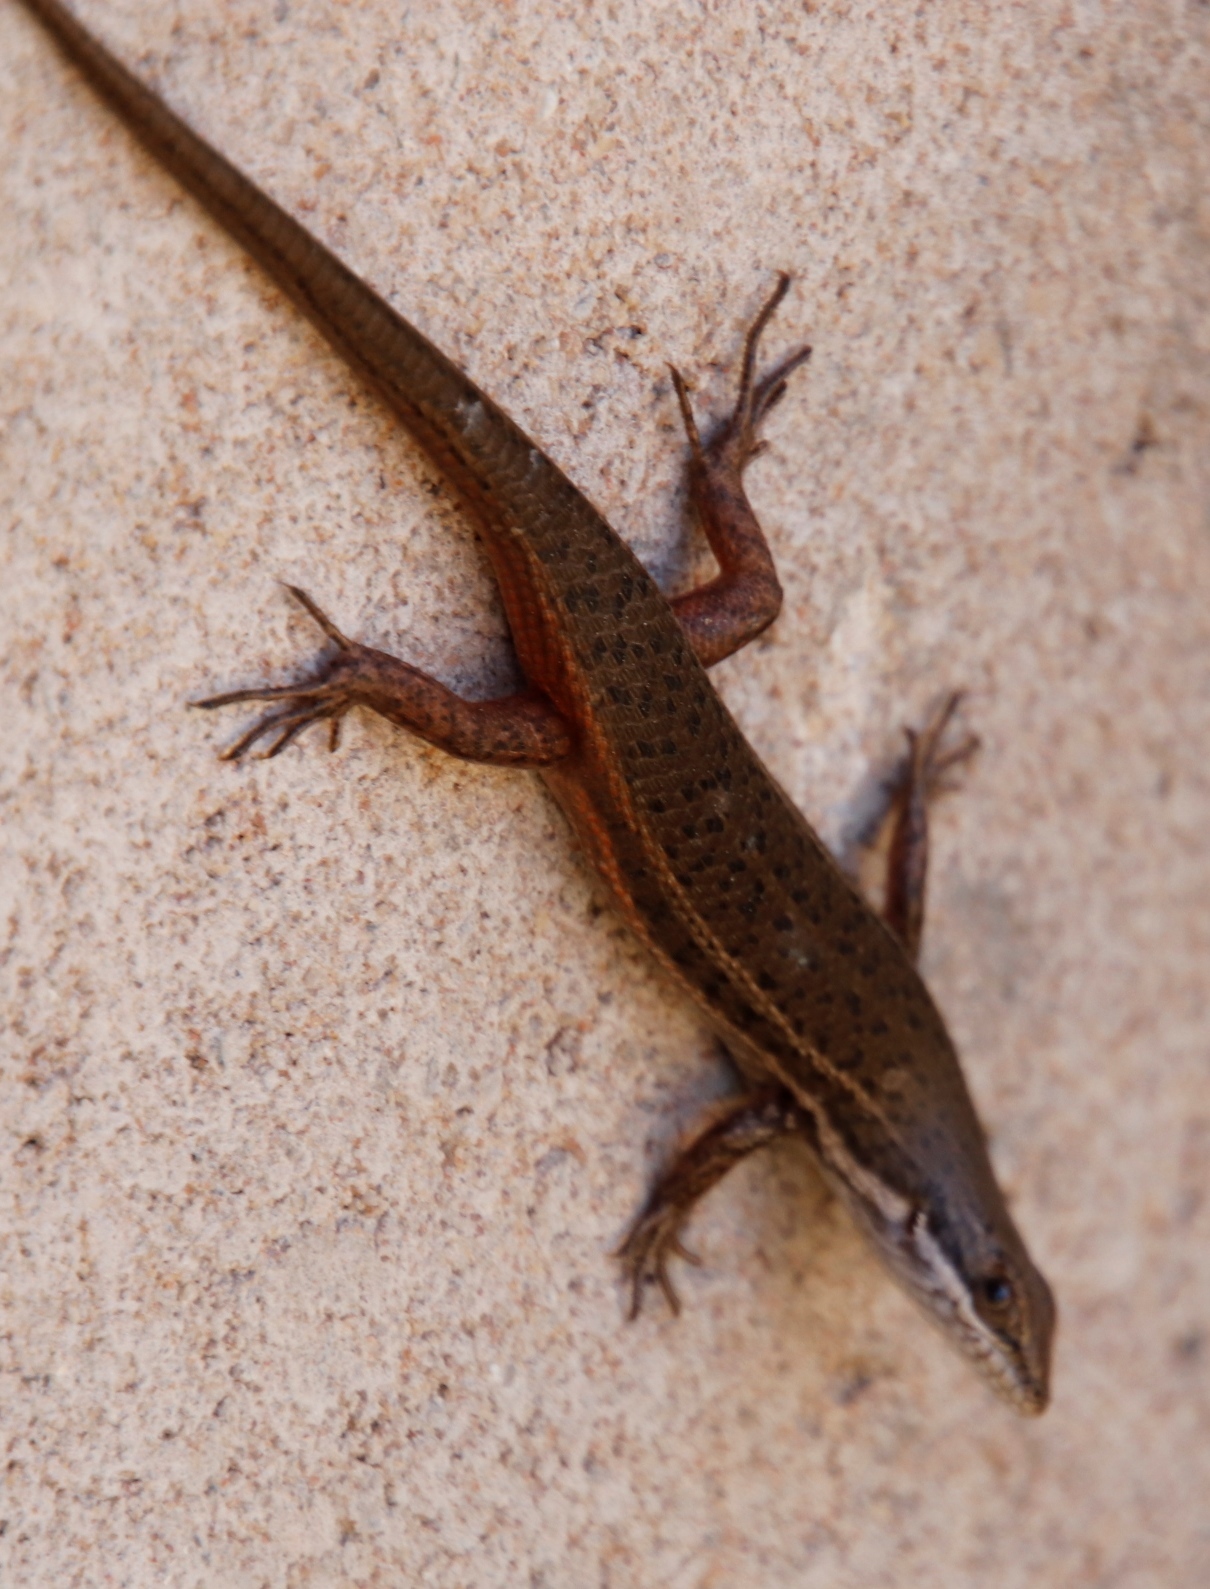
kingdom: Animalia
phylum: Chordata
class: Squamata
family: Scincidae
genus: Trachylepis
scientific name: Trachylepis variegata
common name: Variegated skink
